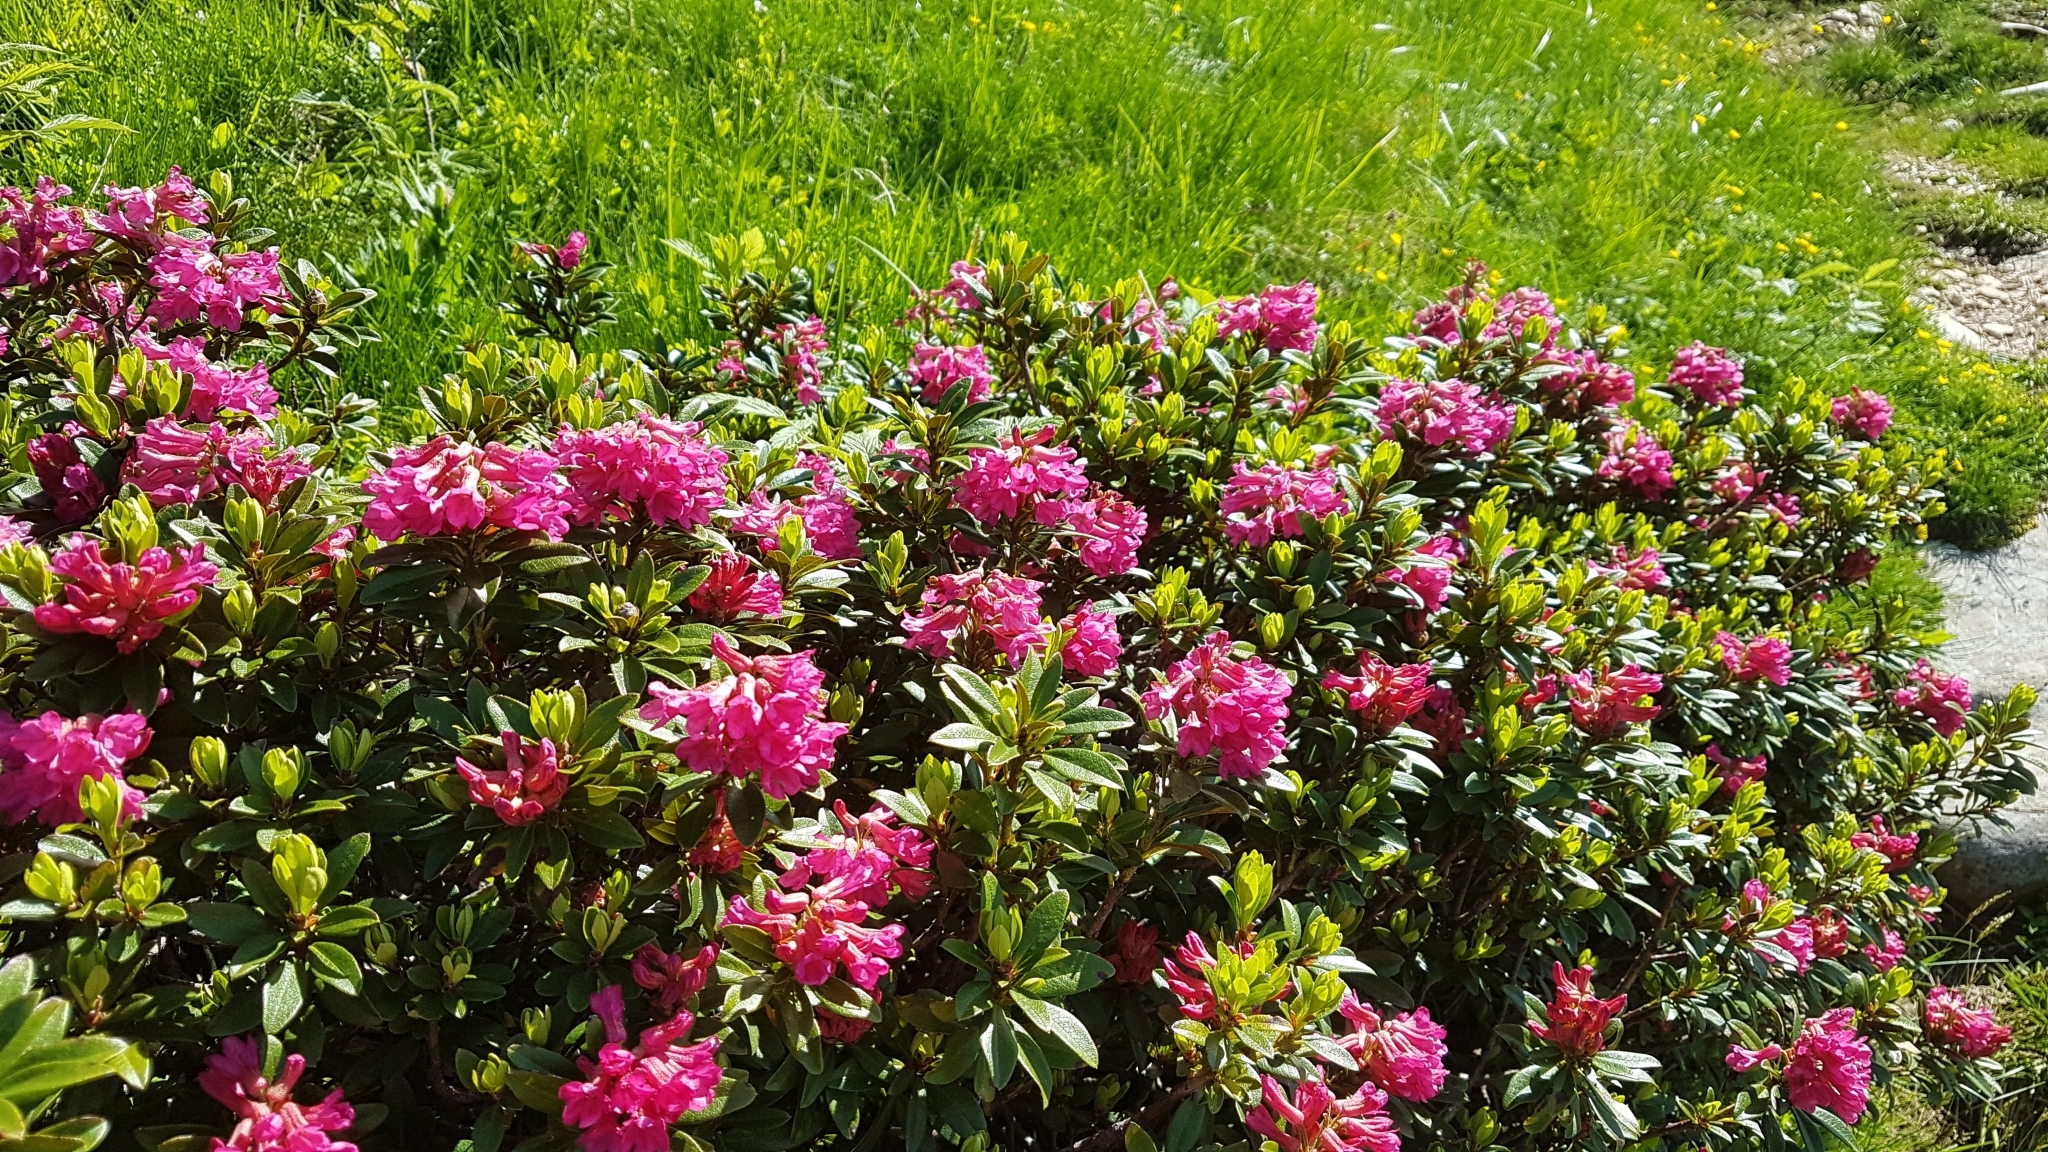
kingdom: Plantae
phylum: Tracheophyta
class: Magnoliopsida
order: Ericales
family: Ericaceae
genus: Rhododendron
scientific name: Rhododendron ferrugineum
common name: Alpenrose
